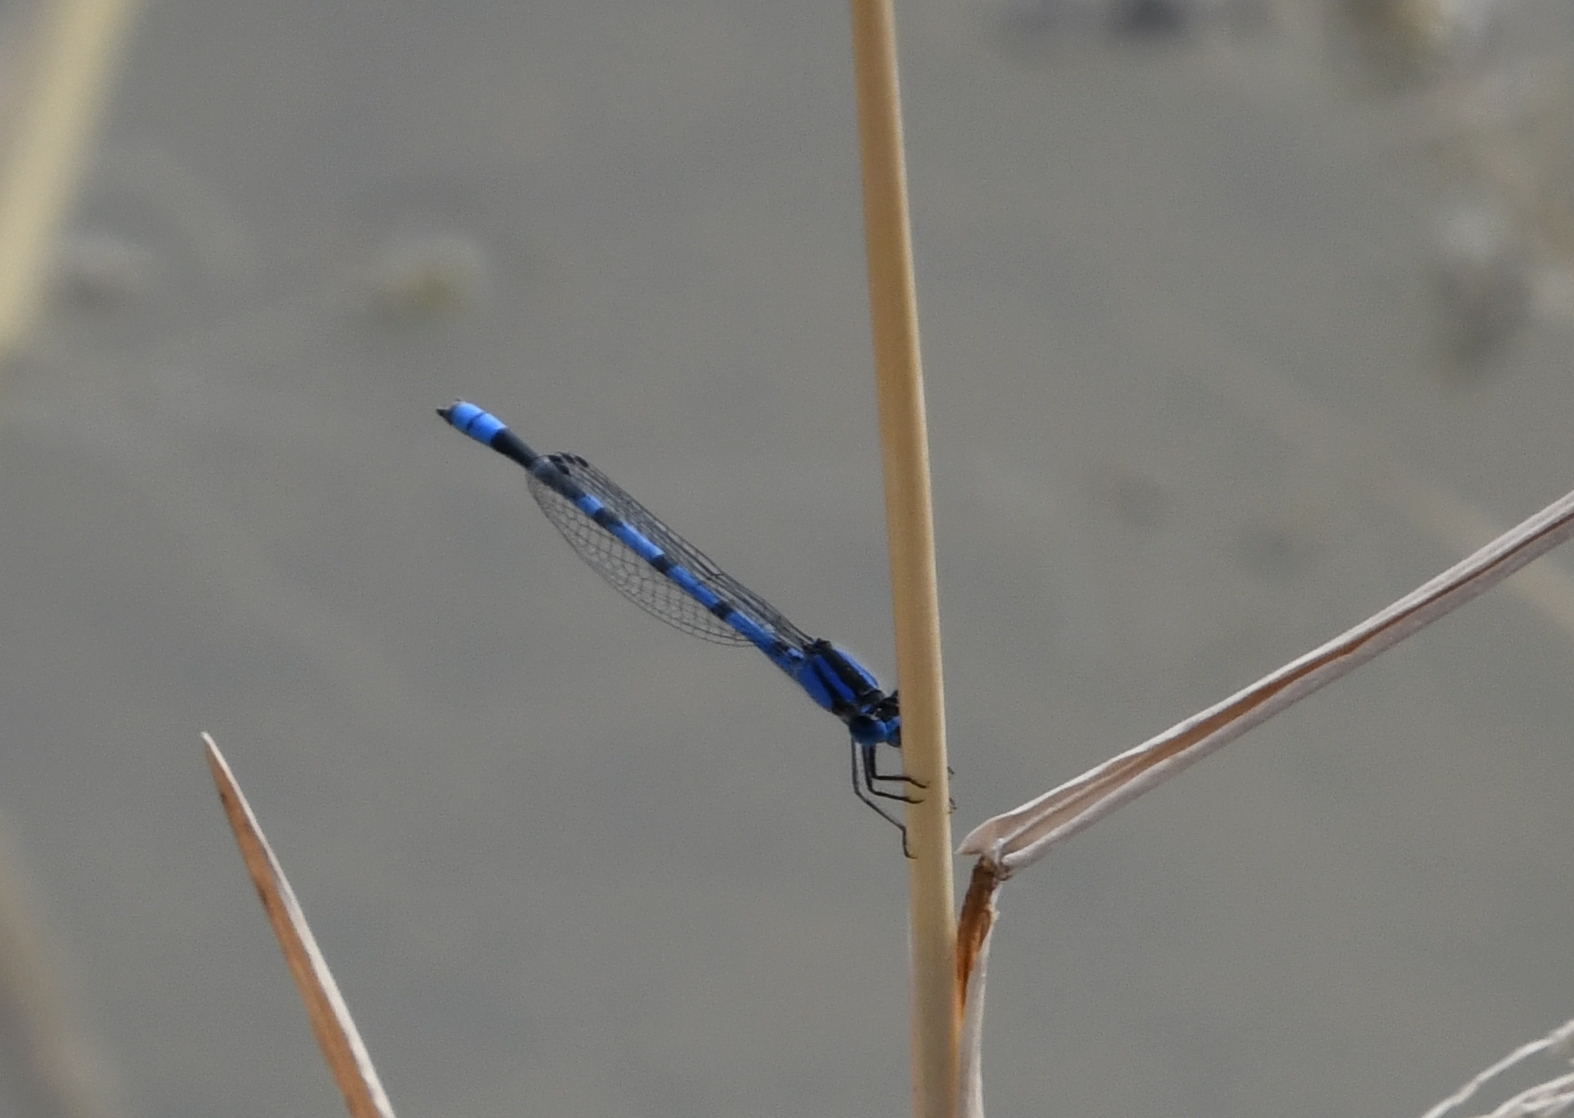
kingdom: Animalia
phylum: Arthropoda
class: Insecta
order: Odonata
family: Coenagrionidae
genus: Enallagma
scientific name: Enallagma civile
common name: Damselfly
